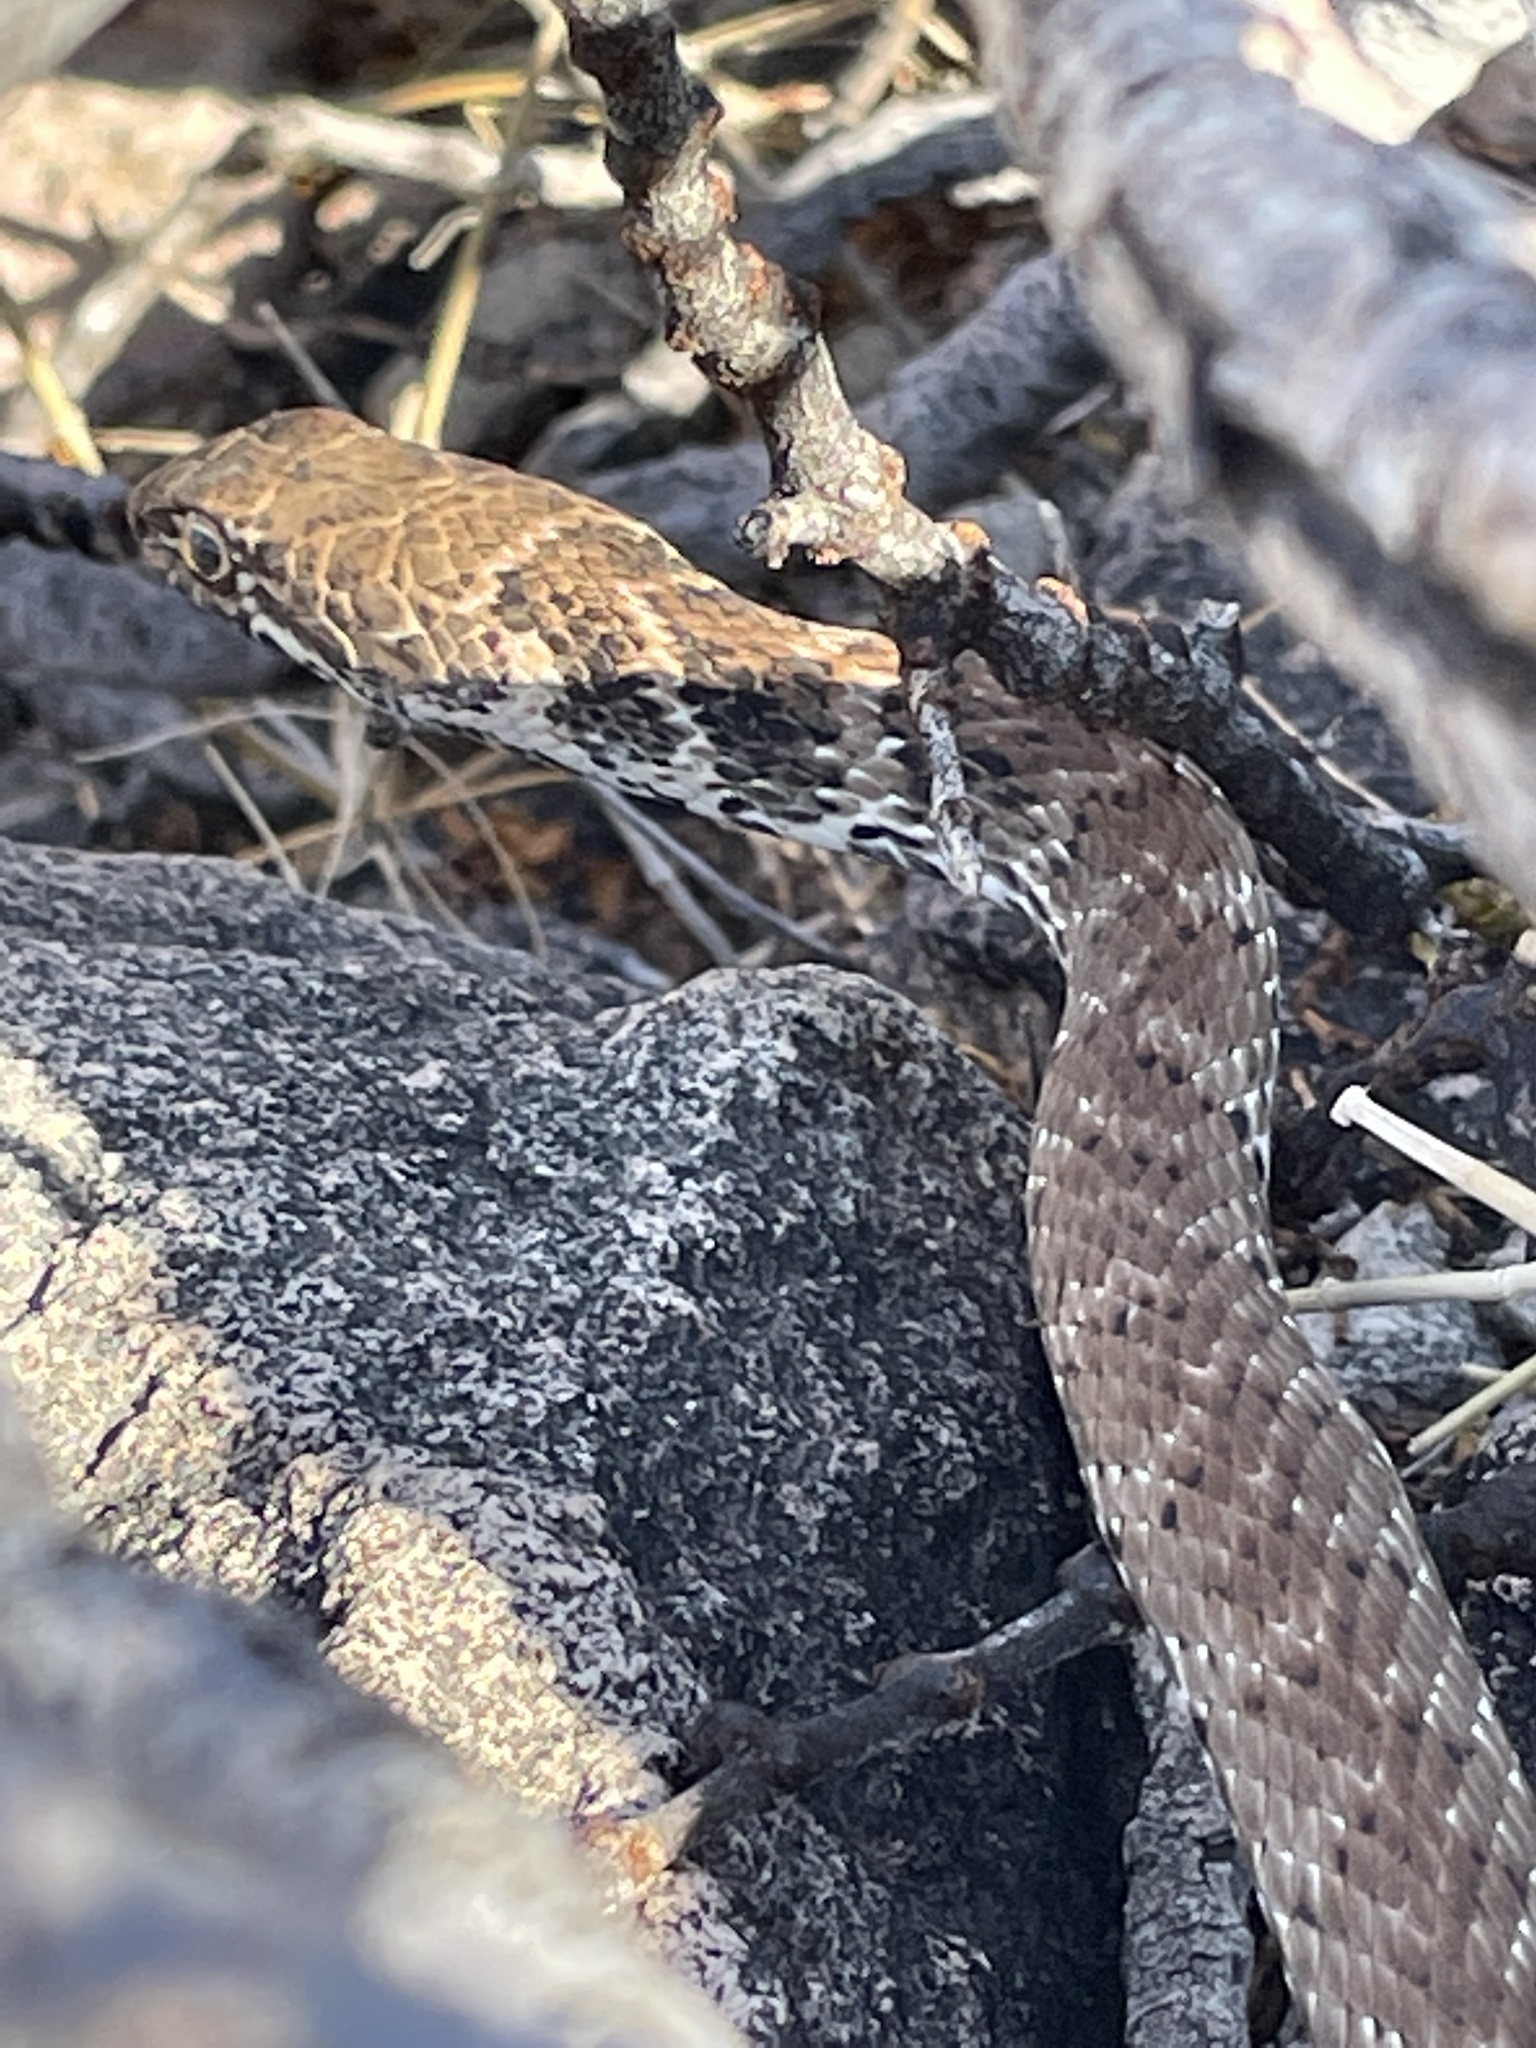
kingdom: Animalia
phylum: Chordata
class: Squamata
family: Colubridae
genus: Masticophis
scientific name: Masticophis flagellum
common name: Coachwhip
